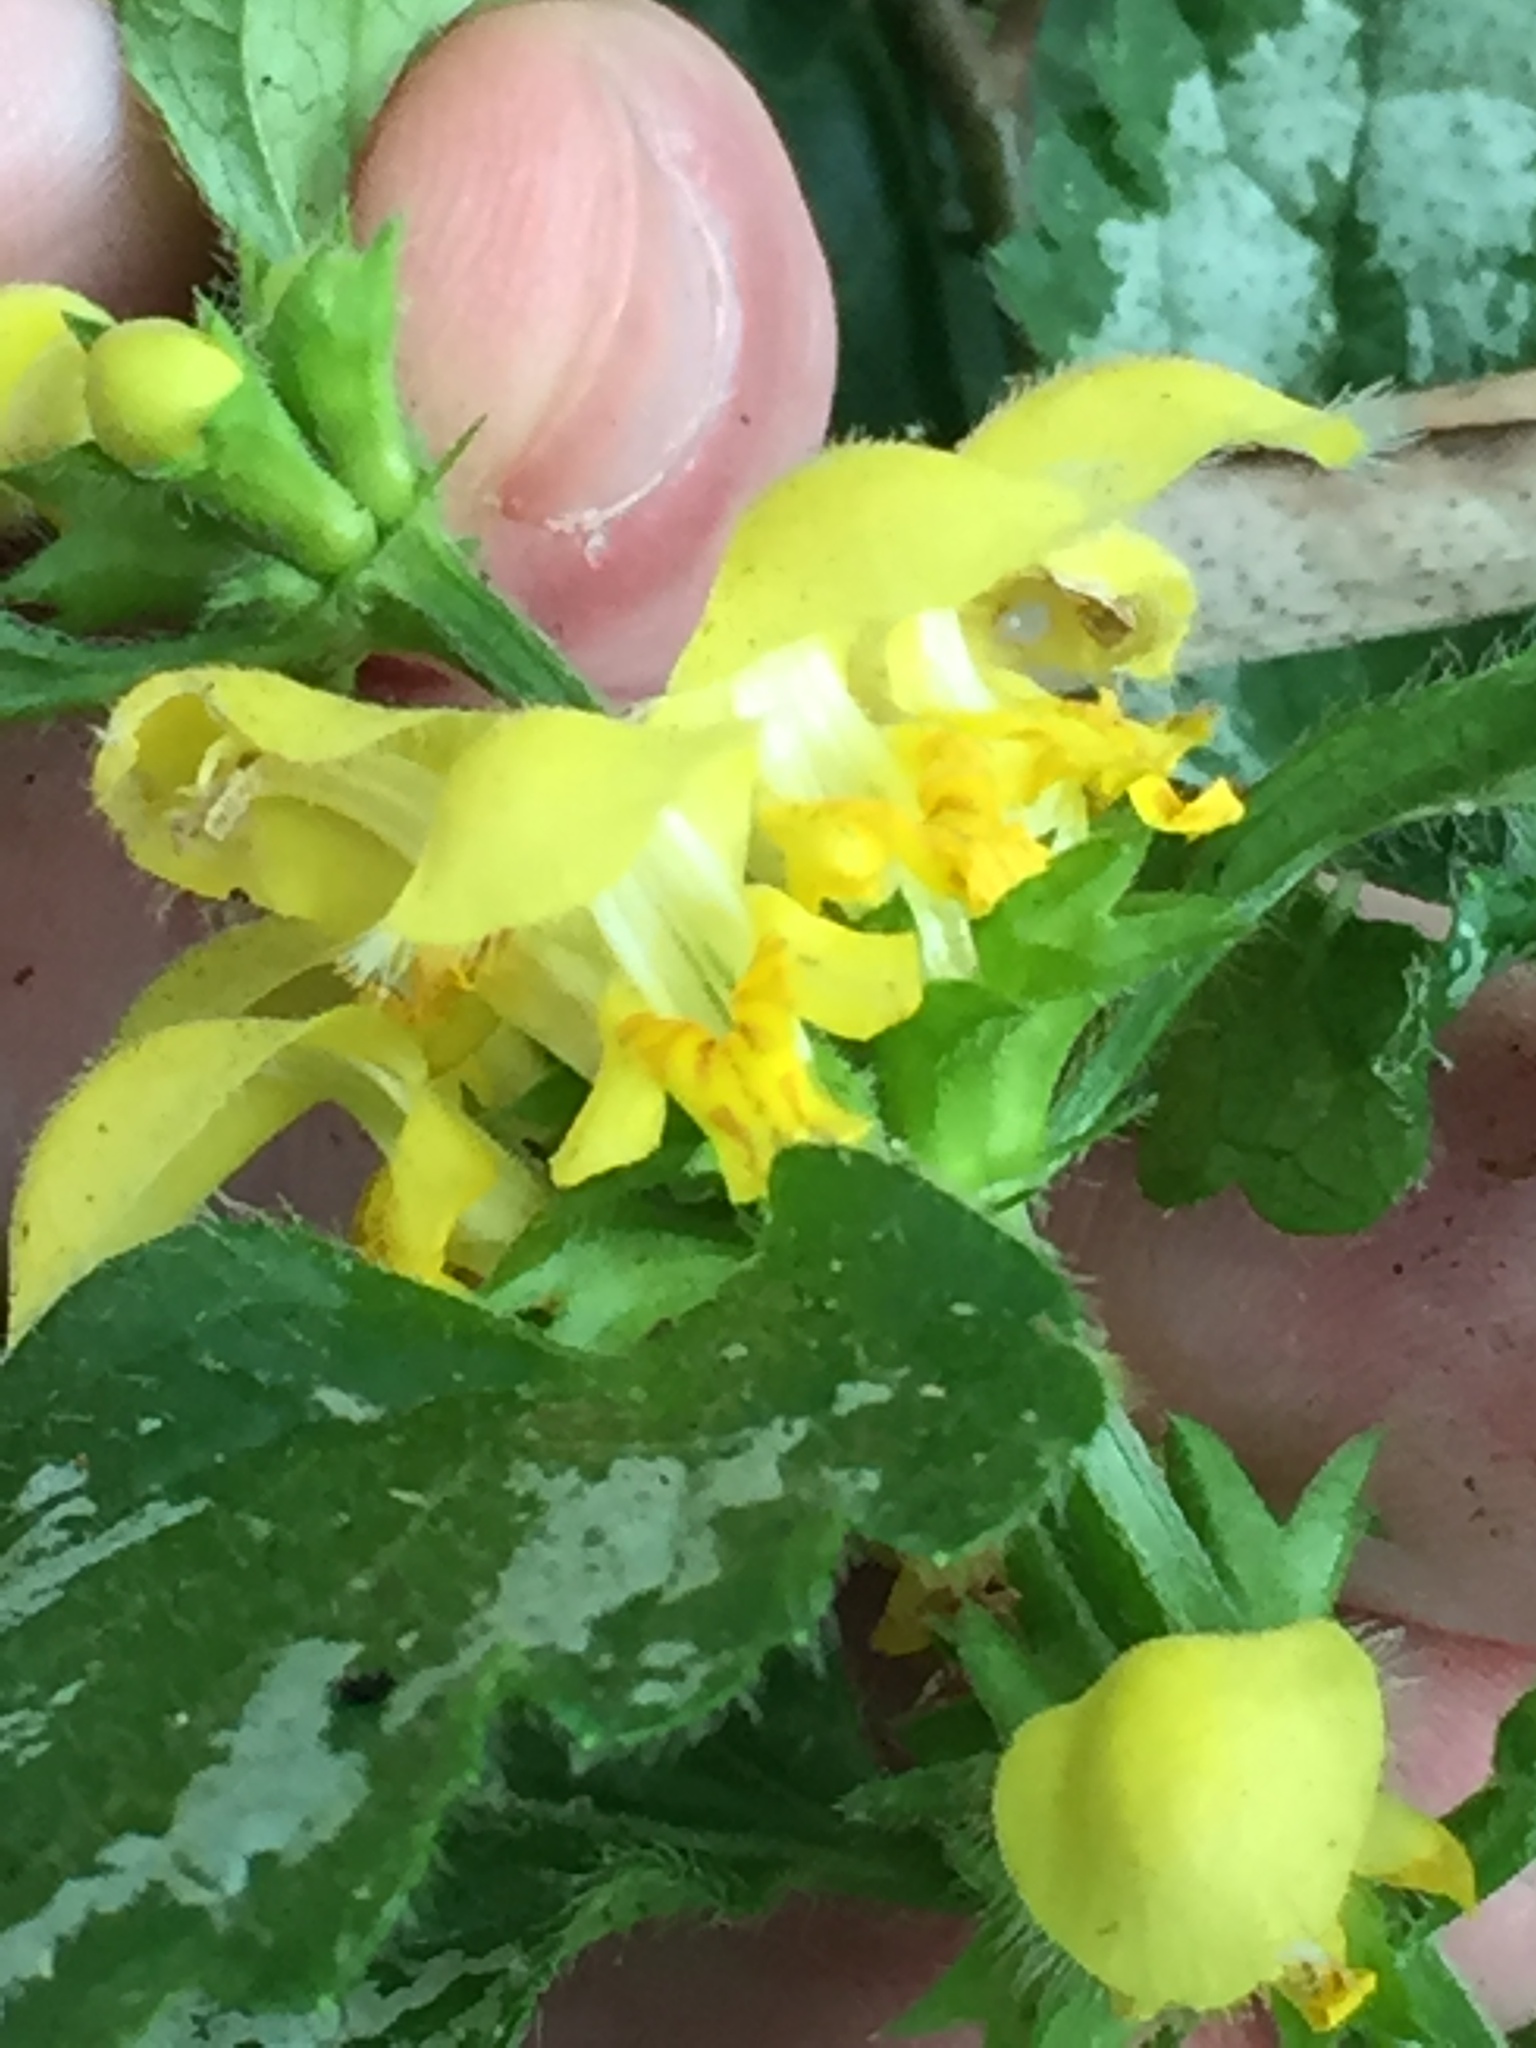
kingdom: Plantae
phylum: Tracheophyta
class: Magnoliopsida
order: Lamiales
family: Lamiaceae
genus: Lamium
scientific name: Lamium galeobdolon
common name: Yellow archangel
